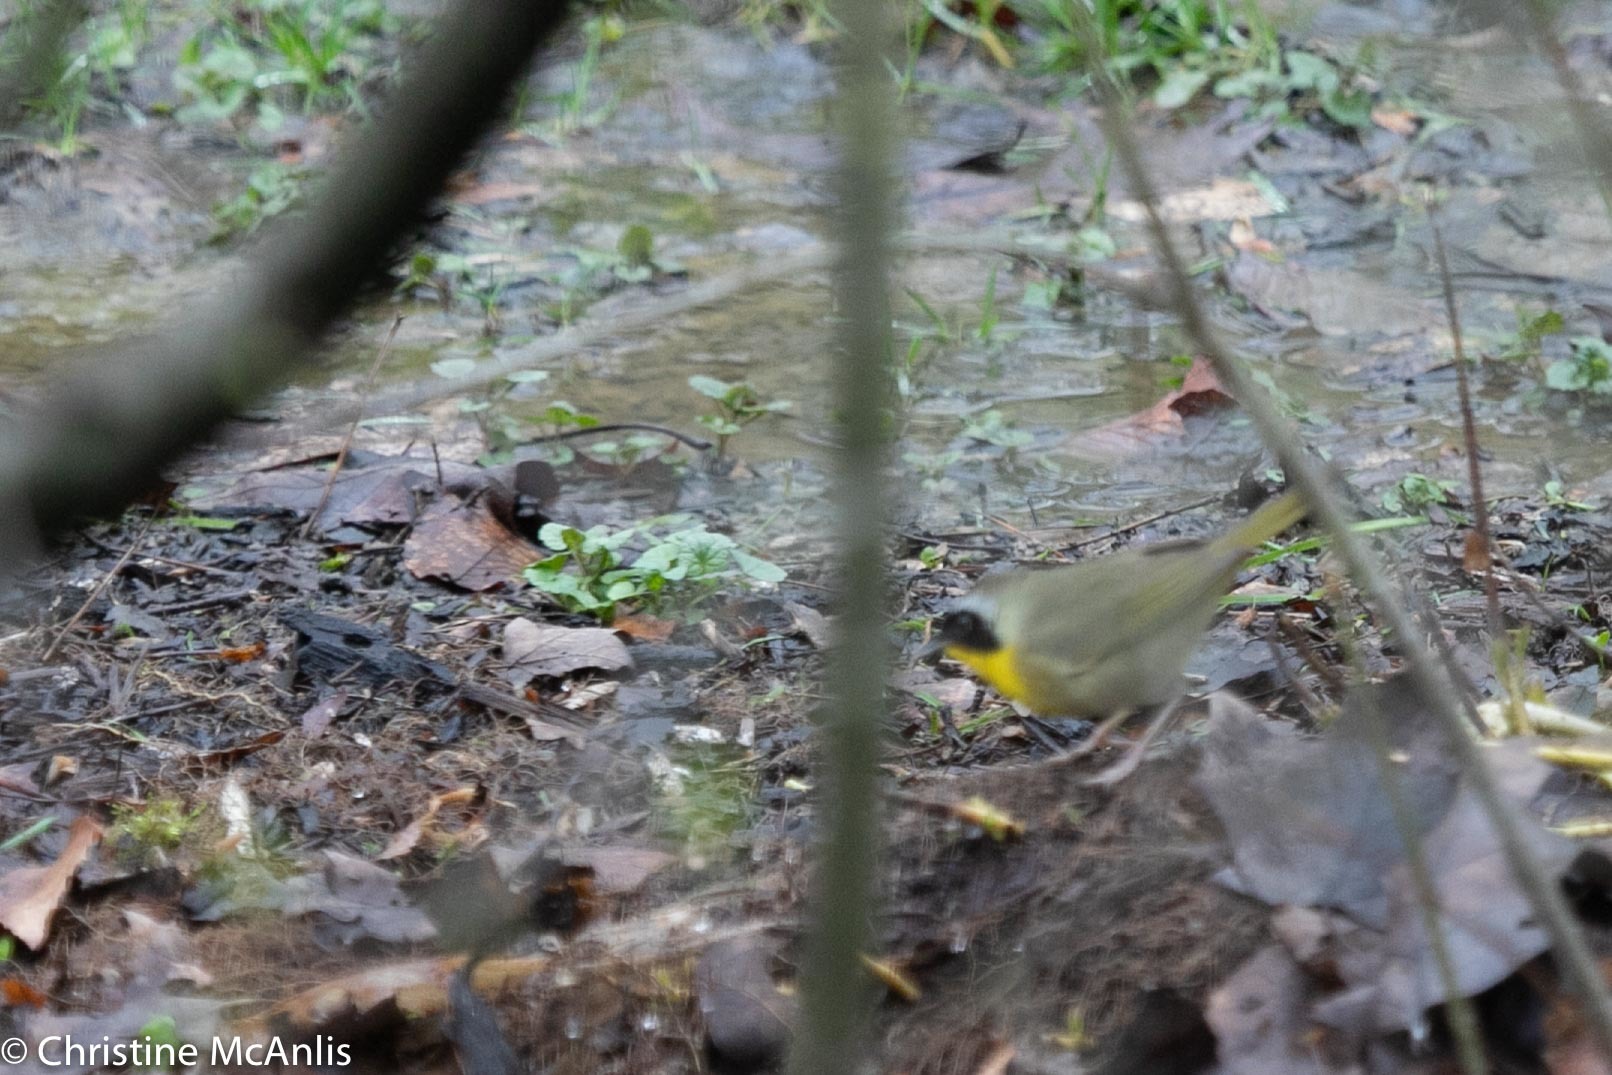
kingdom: Animalia
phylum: Chordata
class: Aves
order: Passeriformes
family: Parulidae
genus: Geothlypis
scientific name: Geothlypis trichas
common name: Common yellowthroat
